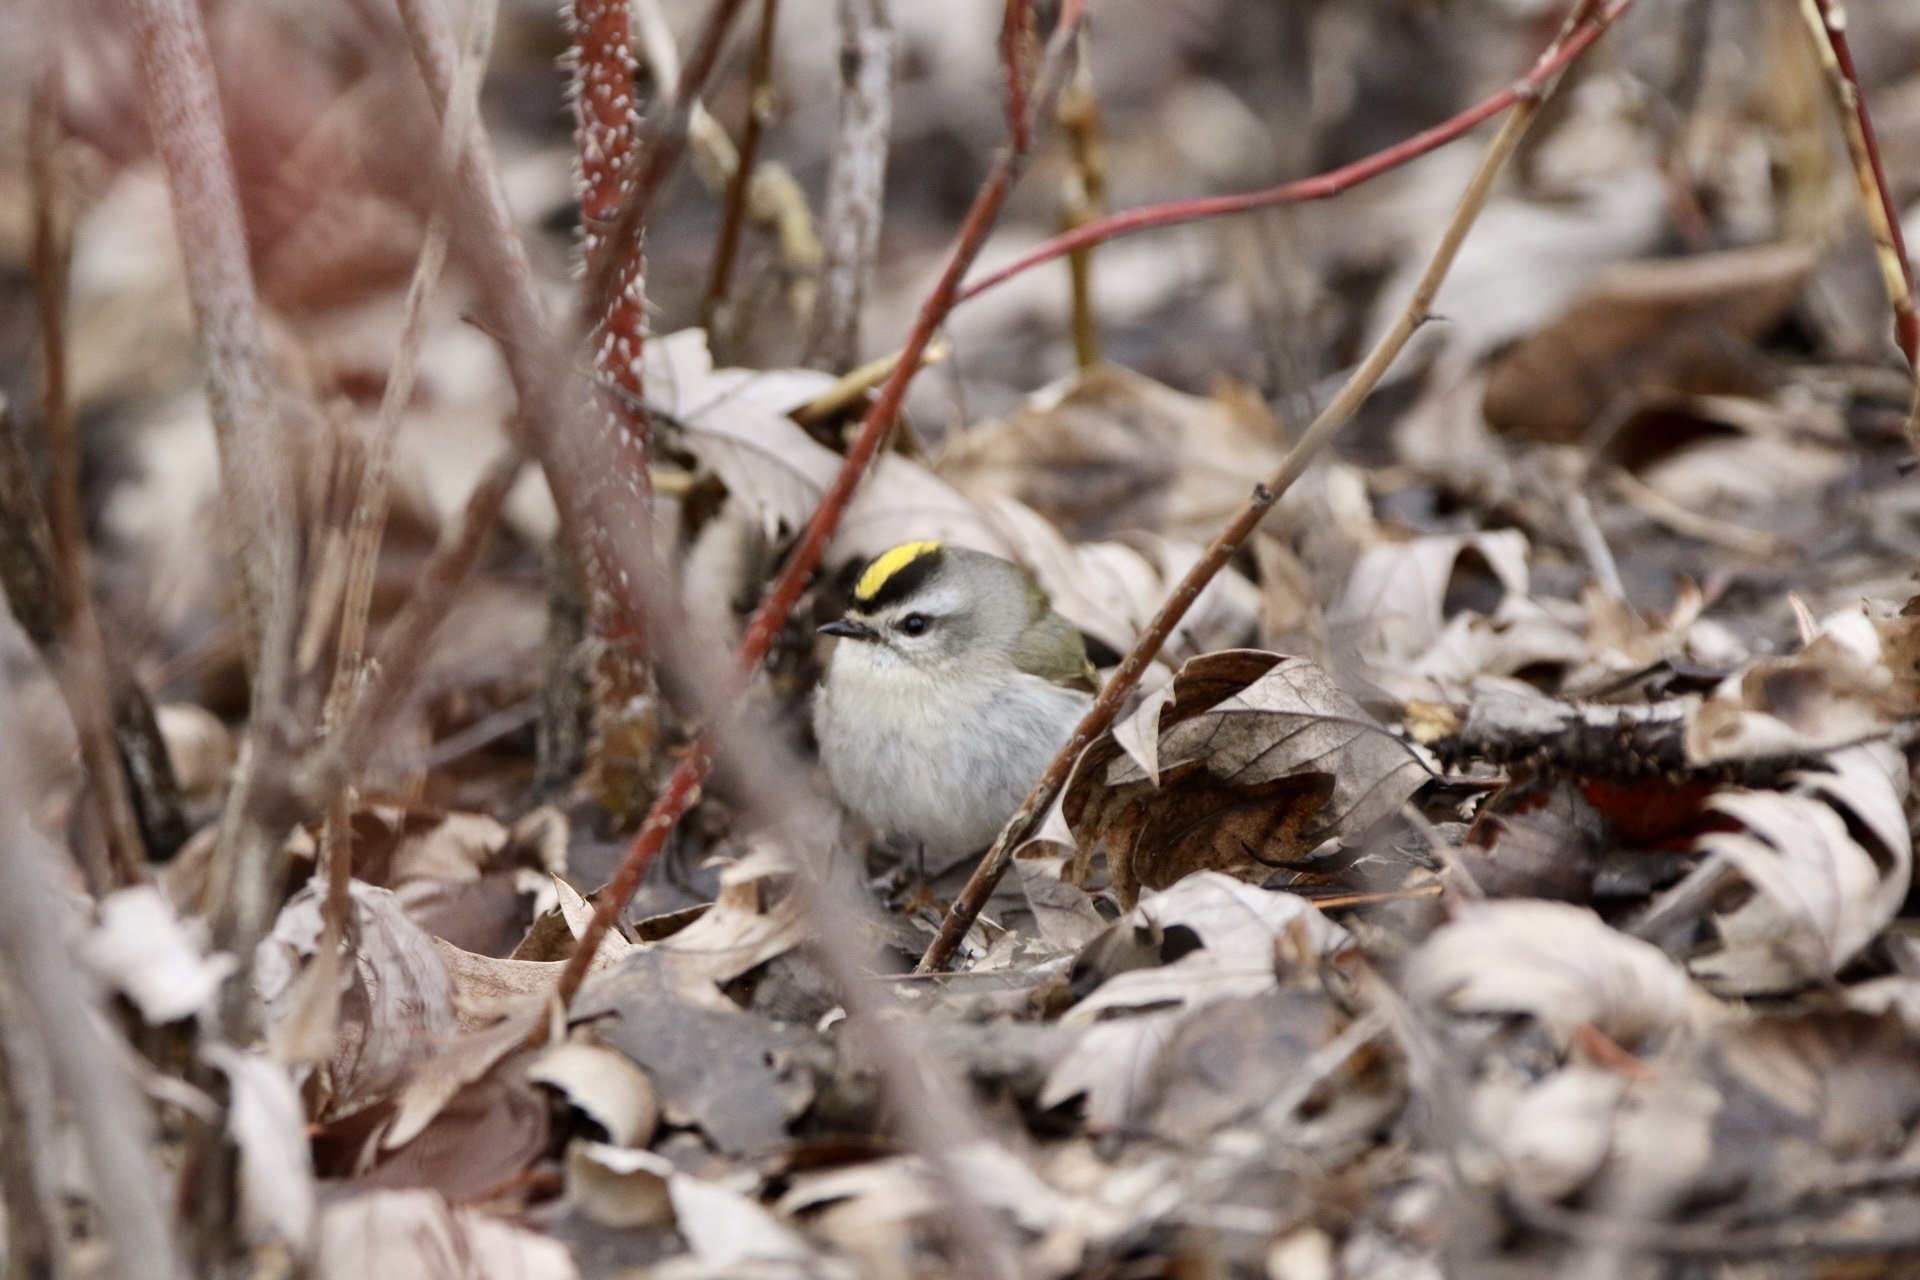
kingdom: Animalia
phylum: Chordata
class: Aves
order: Passeriformes
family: Regulidae
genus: Regulus
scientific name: Regulus satrapa
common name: Golden-crowned kinglet
